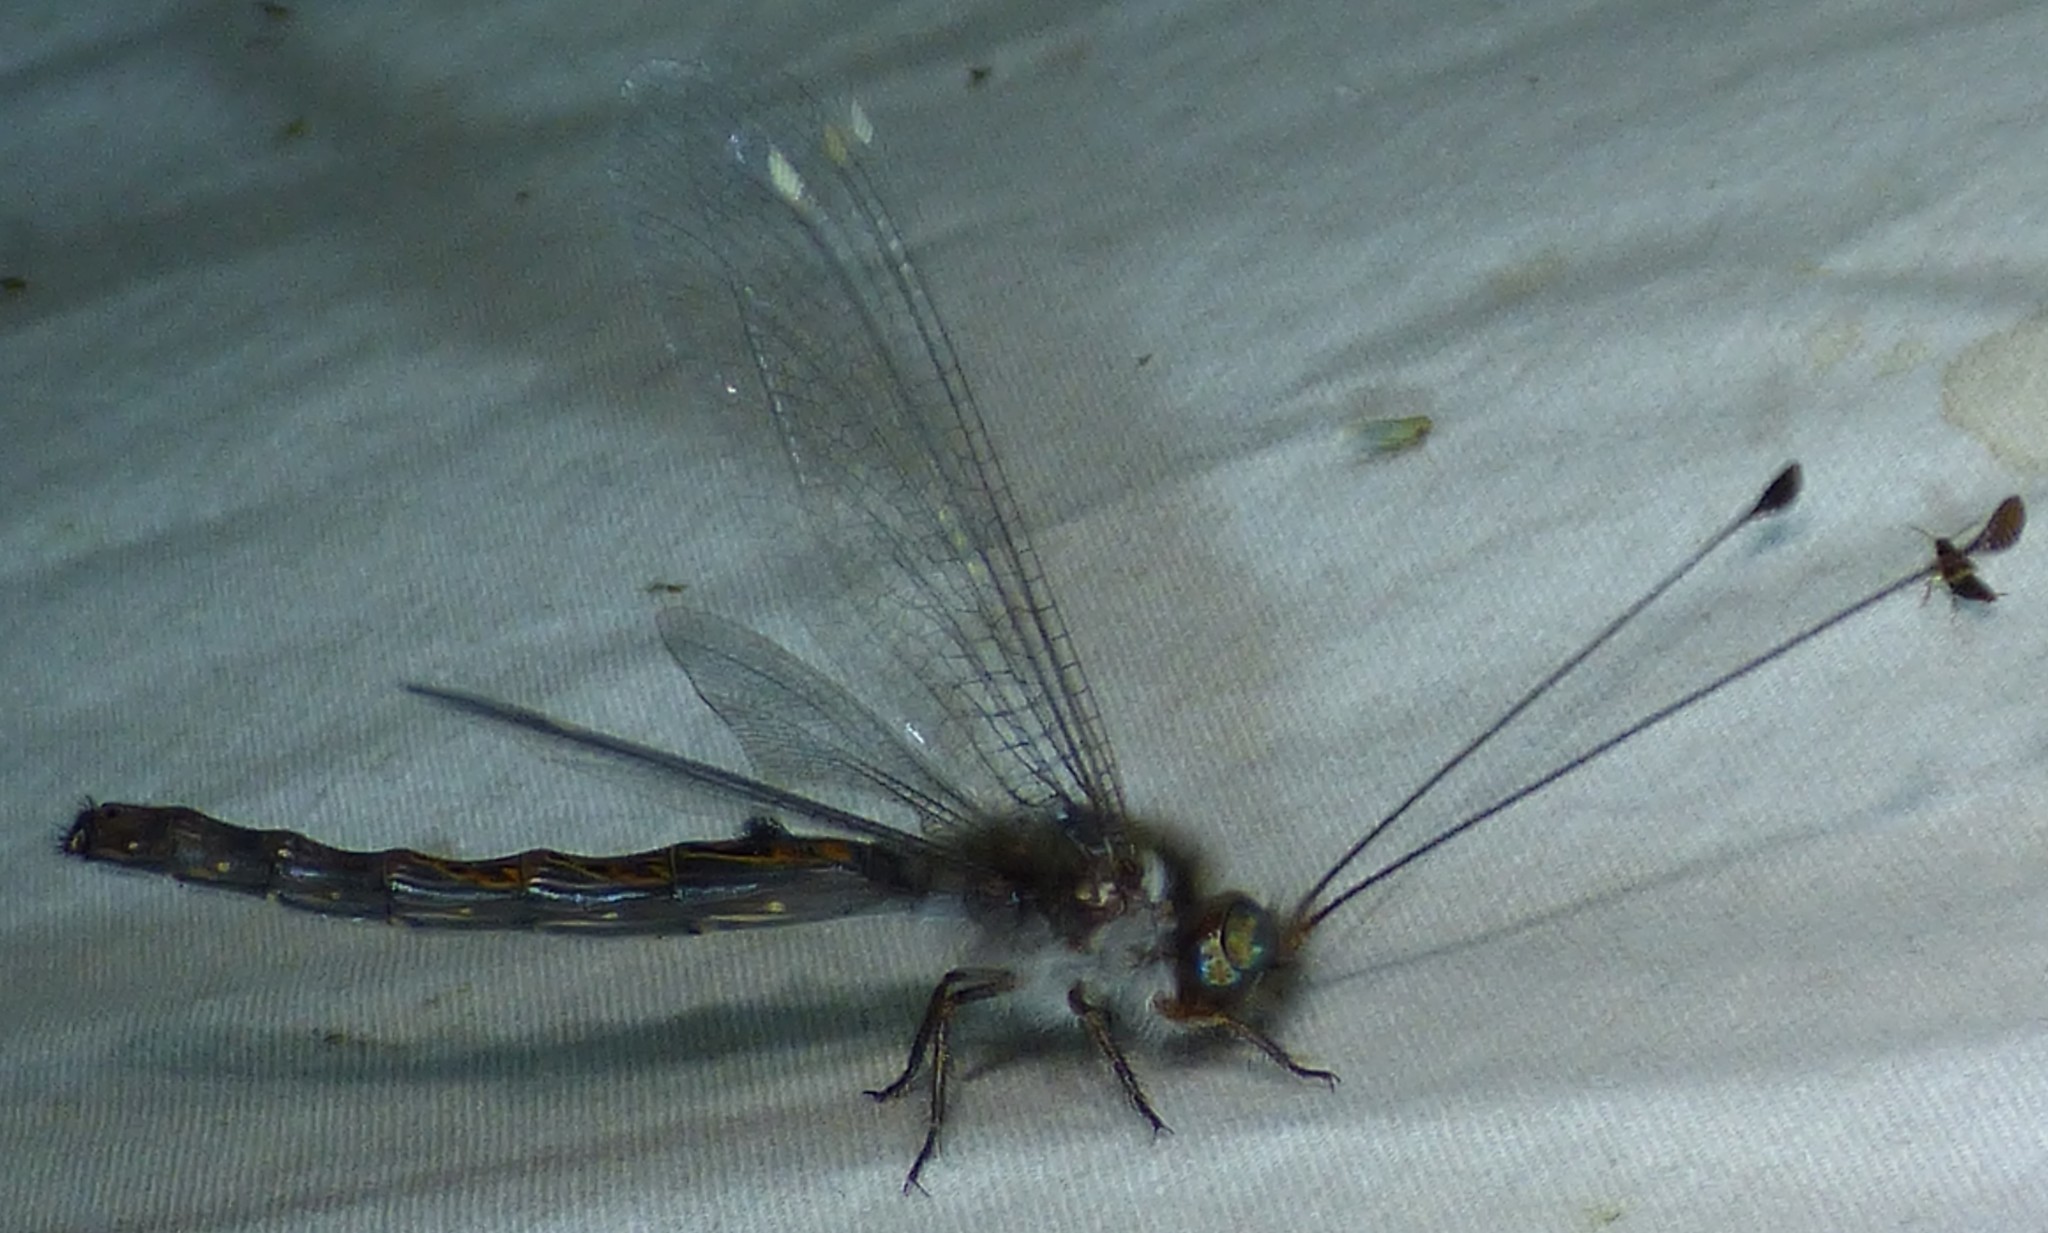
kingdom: Animalia
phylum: Arthropoda
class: Insecta
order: Neuroptera
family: Ascalaphidae
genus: Ululodes
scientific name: Ululodes quadripunctatus
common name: Four-spotted owlfly
